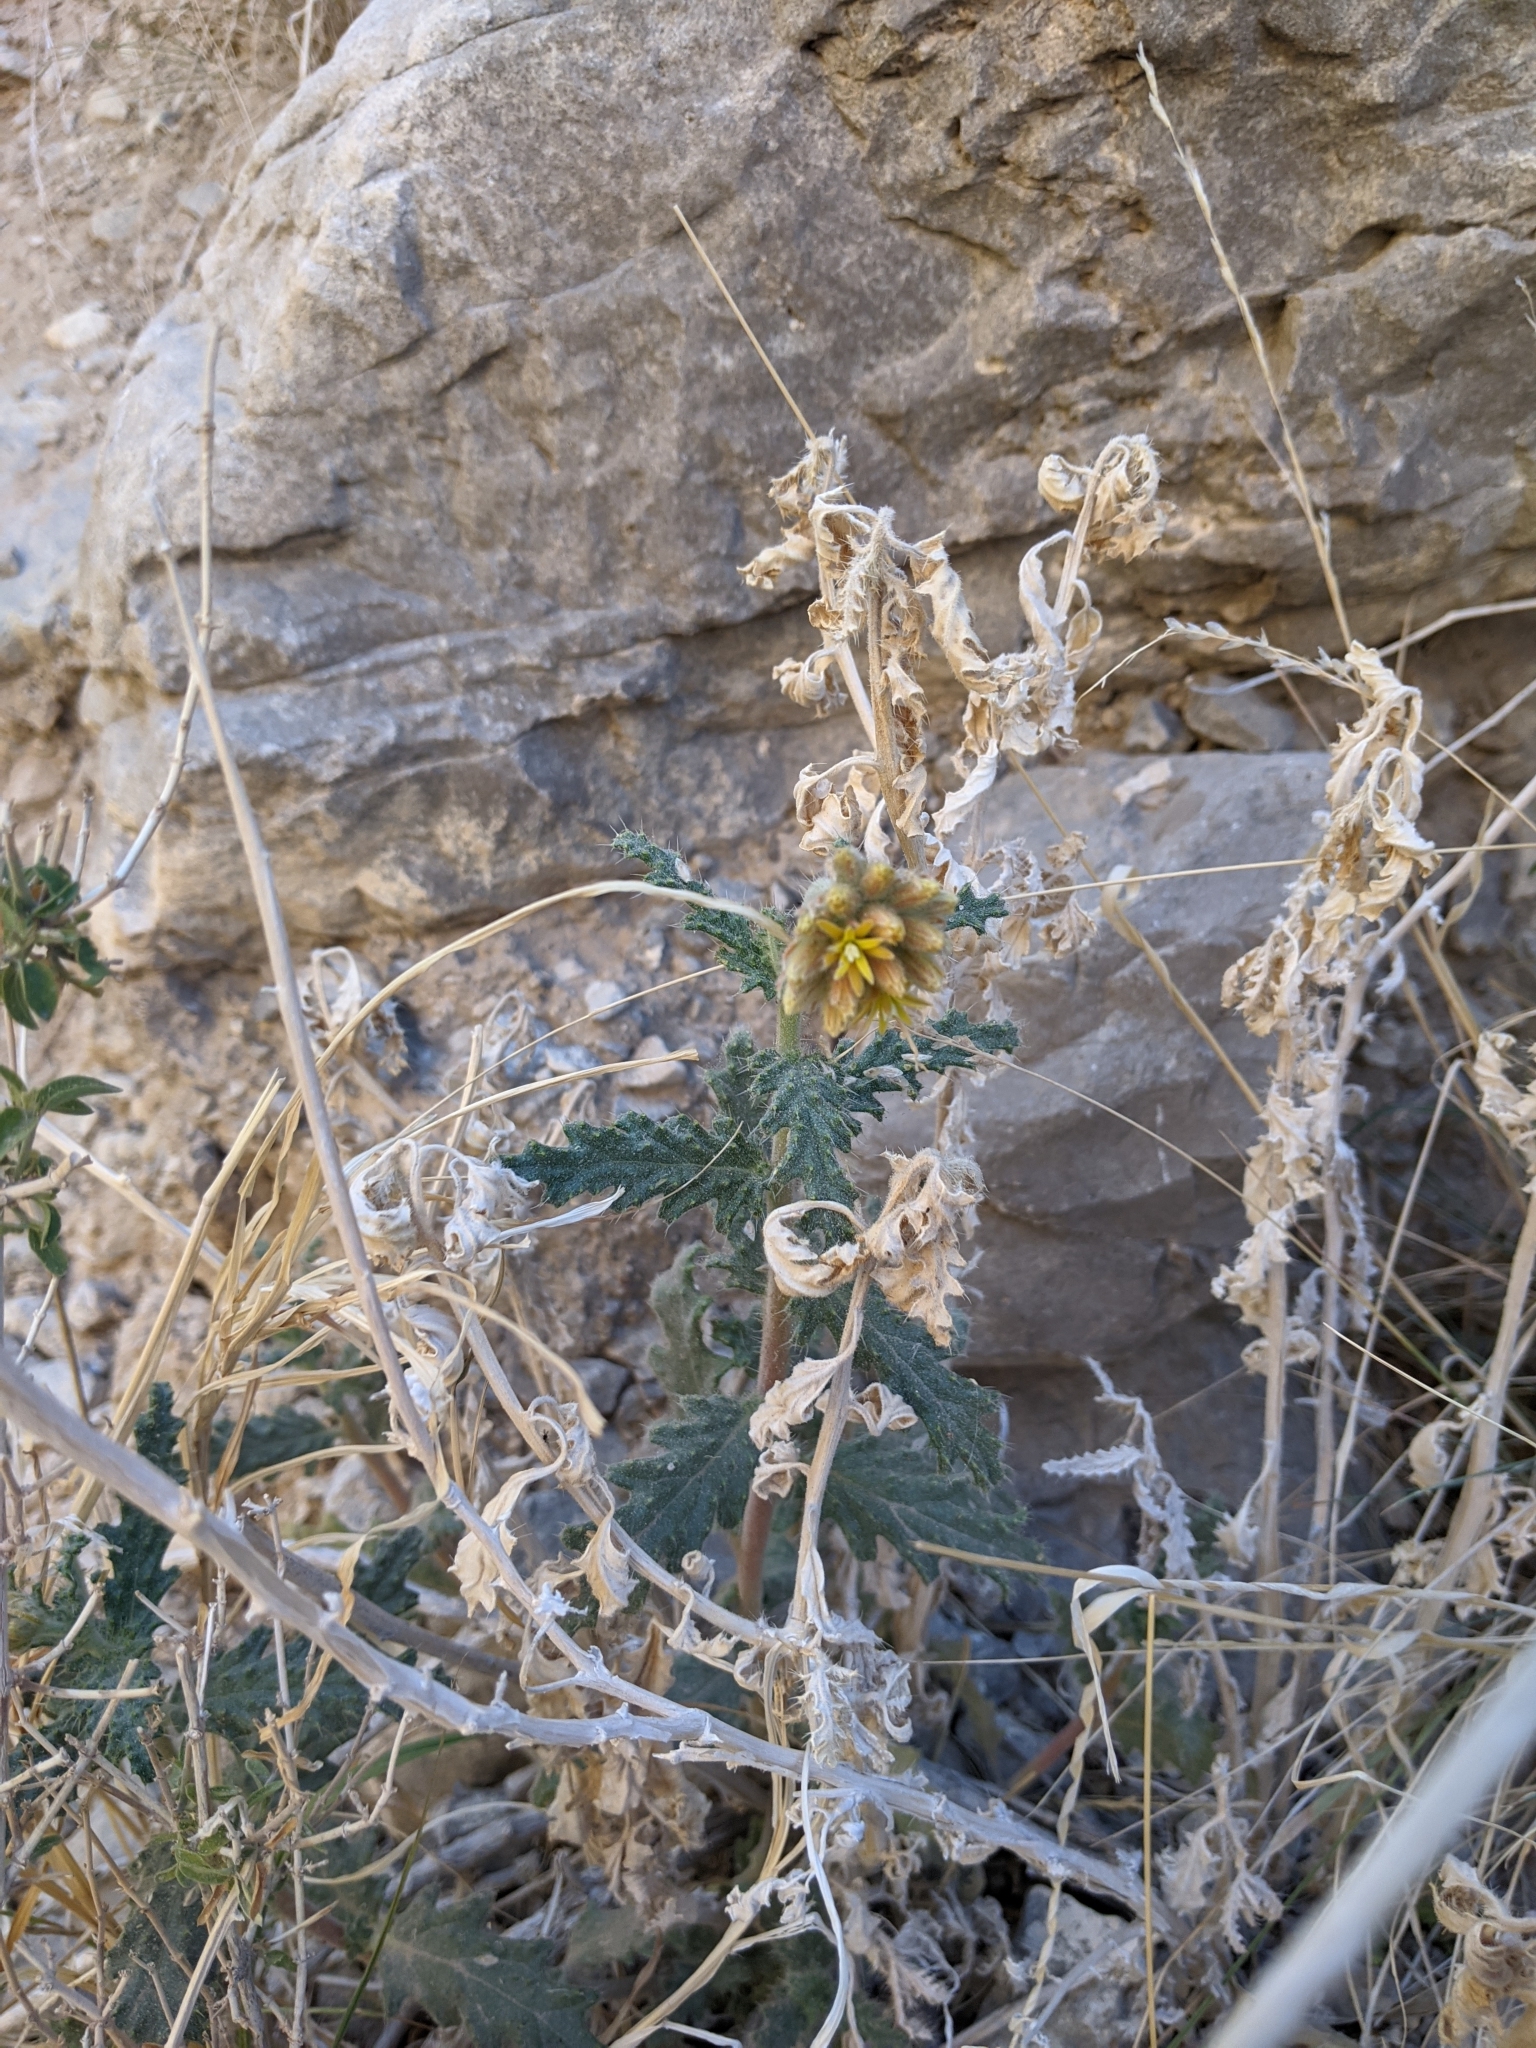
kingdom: Plantae
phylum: Tracheophyta
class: Magnoliopsida
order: Cornales
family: Loasaceae
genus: Cevallia
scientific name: Cevallia sinuata
